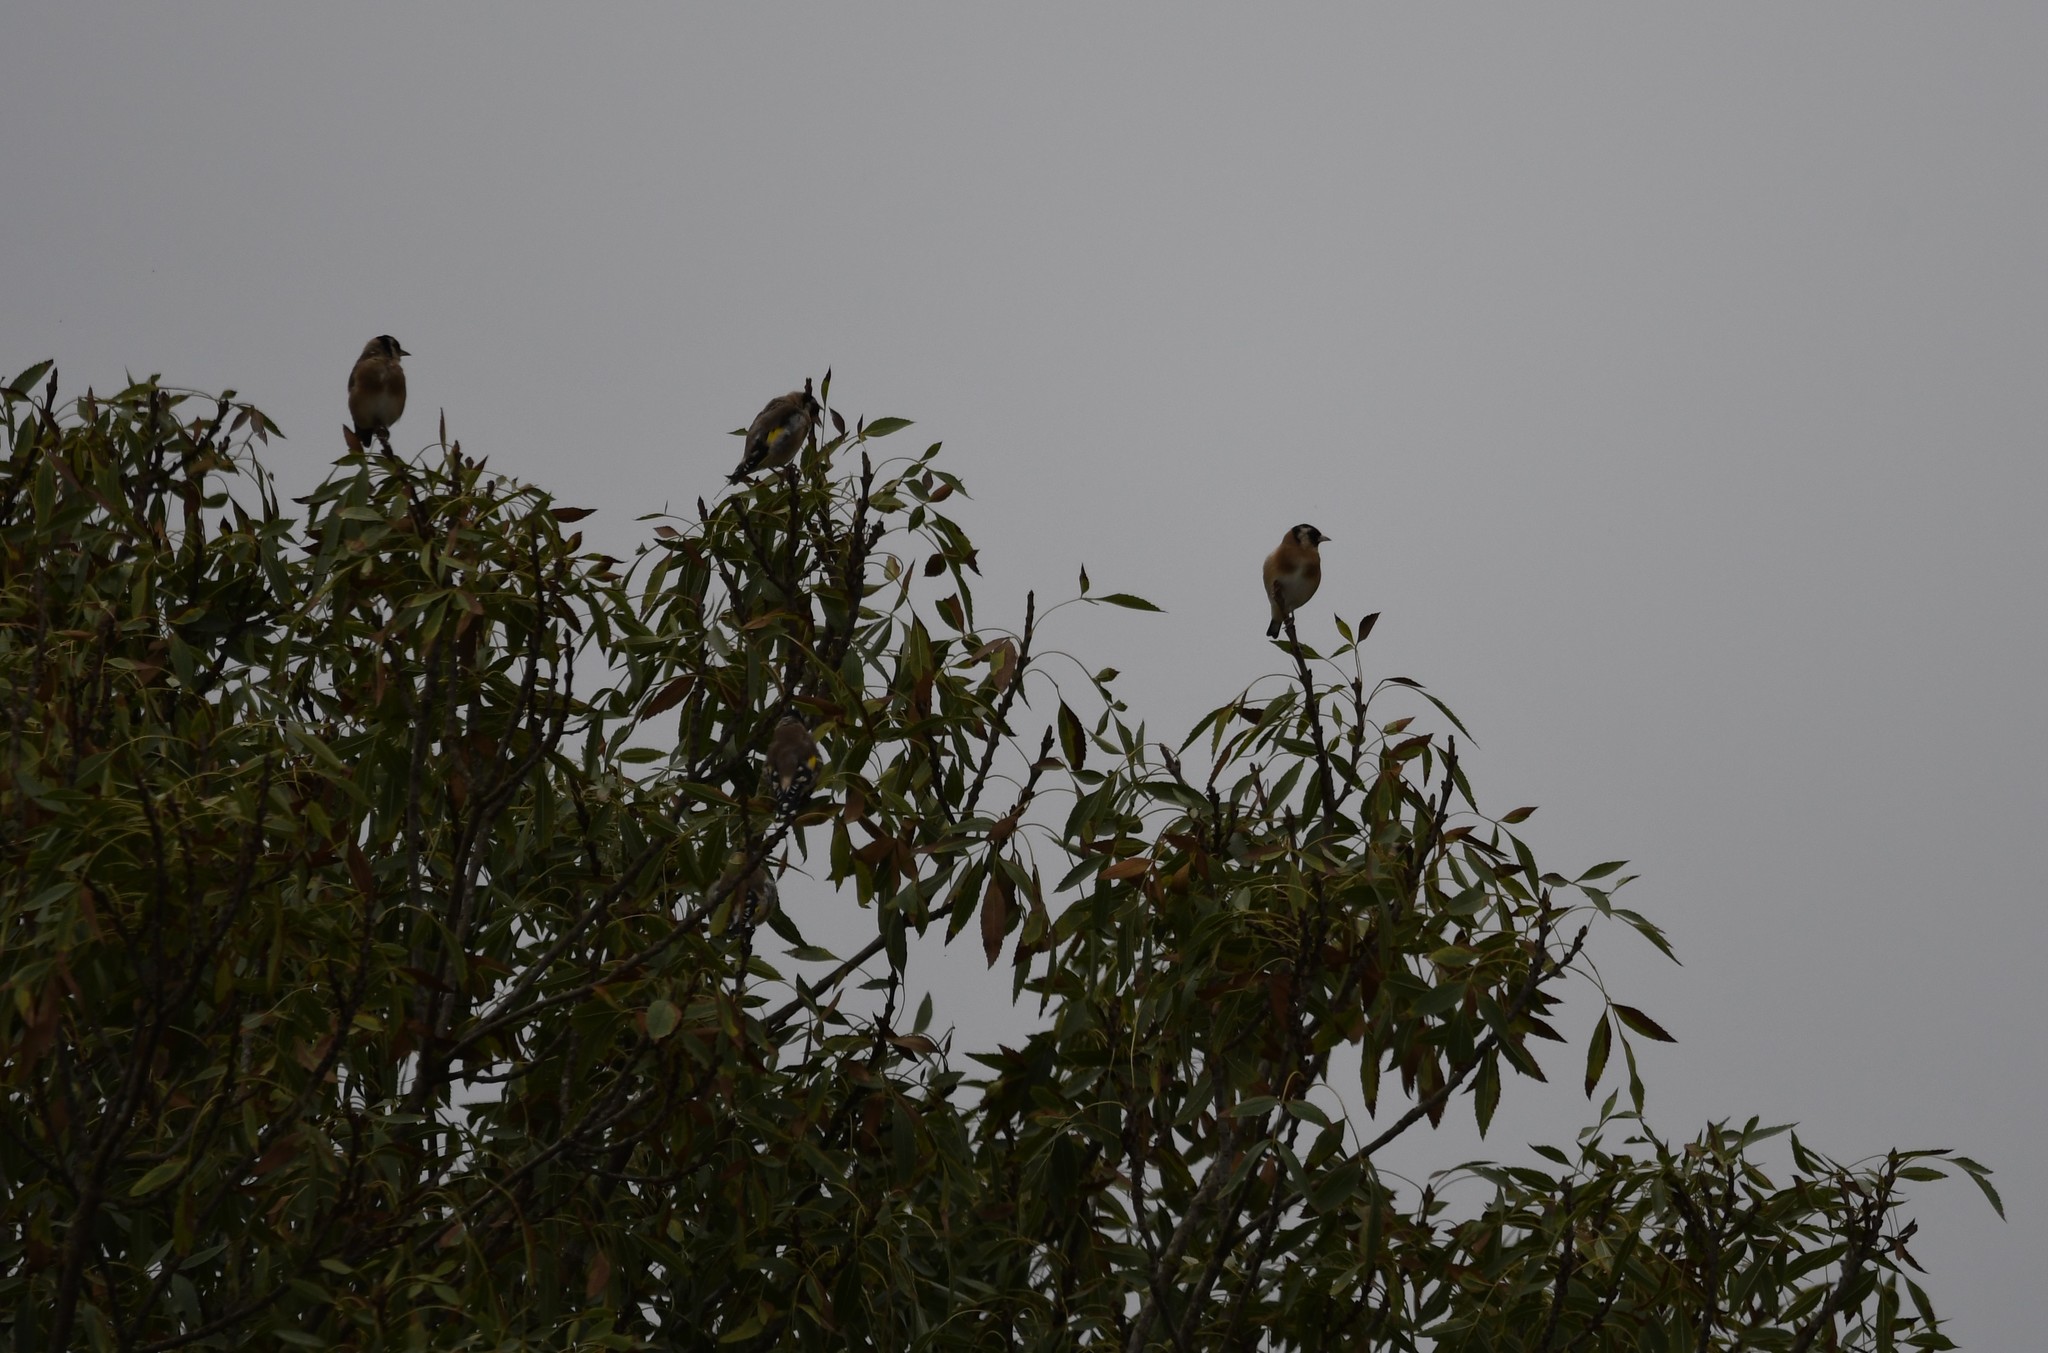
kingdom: Animalia
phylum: Chordata
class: Aves
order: Passeriformes
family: Fringillidae
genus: Carduelis
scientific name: Carduelis carduelis
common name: European goldfinch
